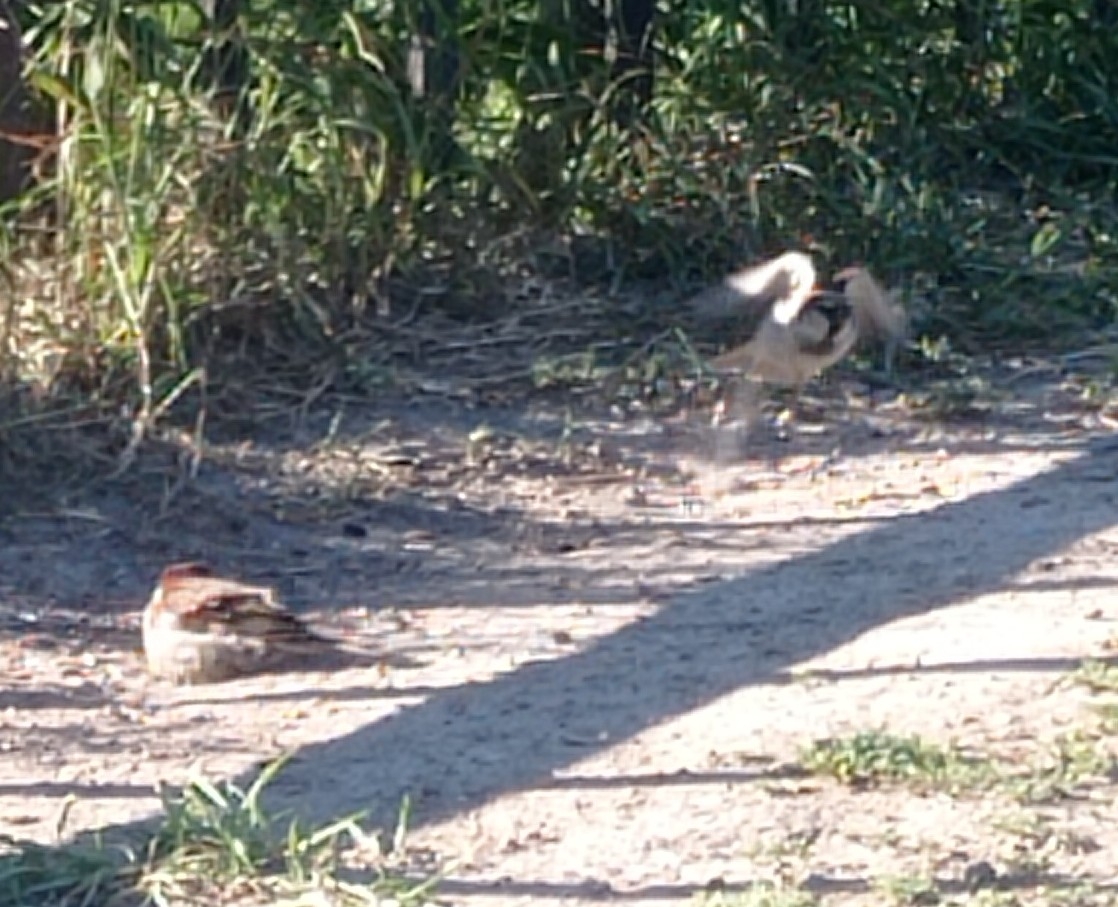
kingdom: Animalia
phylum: Chordata
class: Aves
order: Passeriformes
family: Passeridae
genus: Passer
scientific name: Passer domesticus
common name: House sparrow
